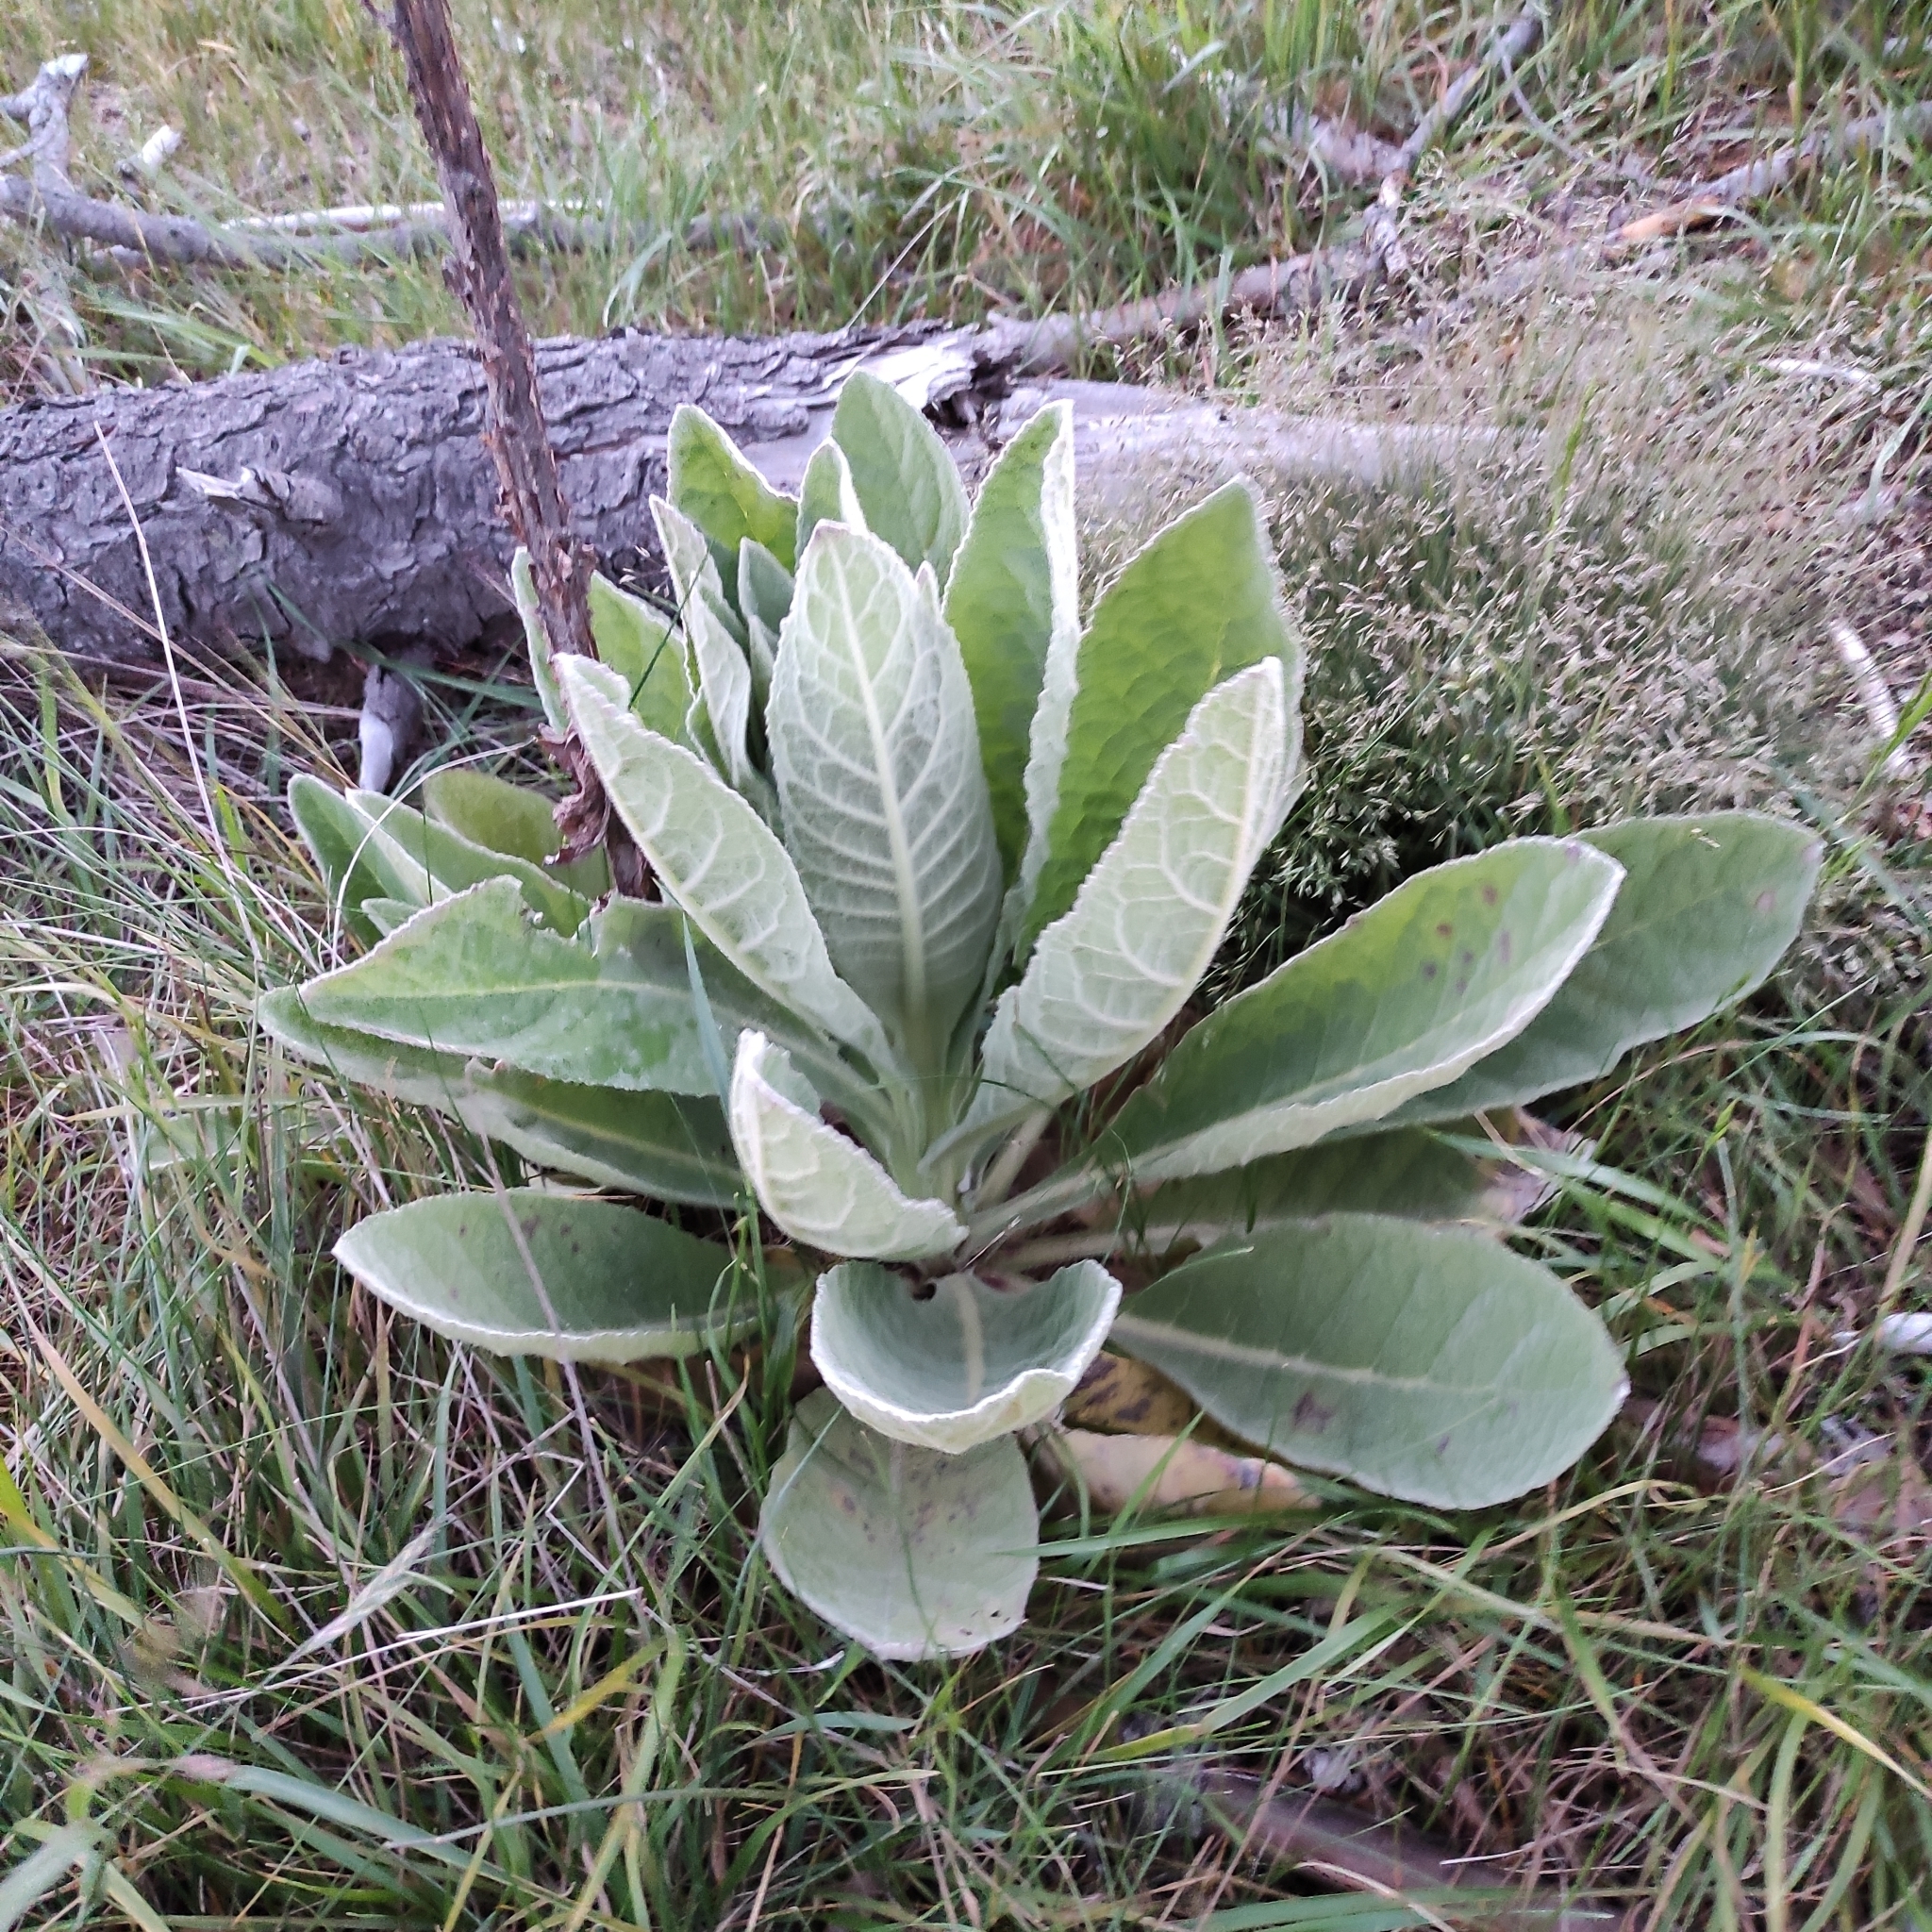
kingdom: Plantae
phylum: Tracheophyta
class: Magnoliopsida
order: Lamiales
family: Scrophulariaceae
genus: Verbascum
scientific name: Verbascum thapsus
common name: Common mullein
